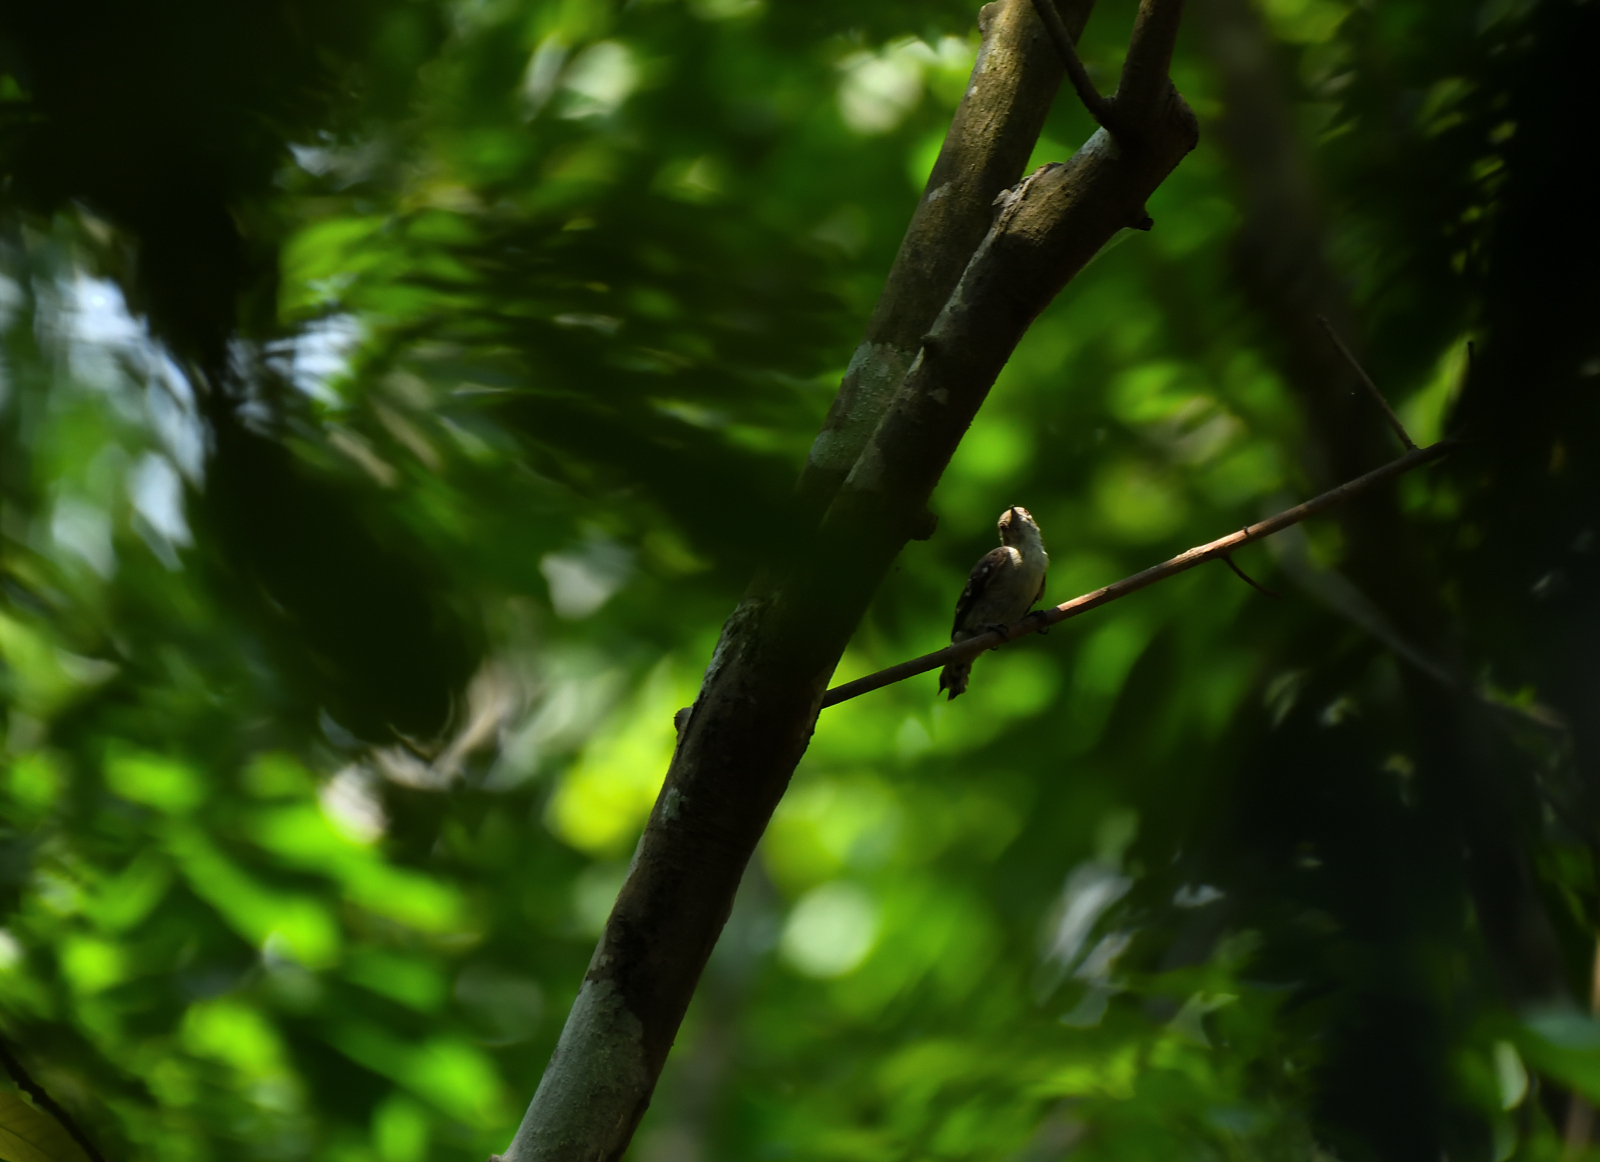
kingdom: Animalia
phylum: Chordata
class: Aves
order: Piciformes
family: Picidae
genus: Yungipicus
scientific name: Yungipicus nanus
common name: Brown-capped pygmy woodpecker
